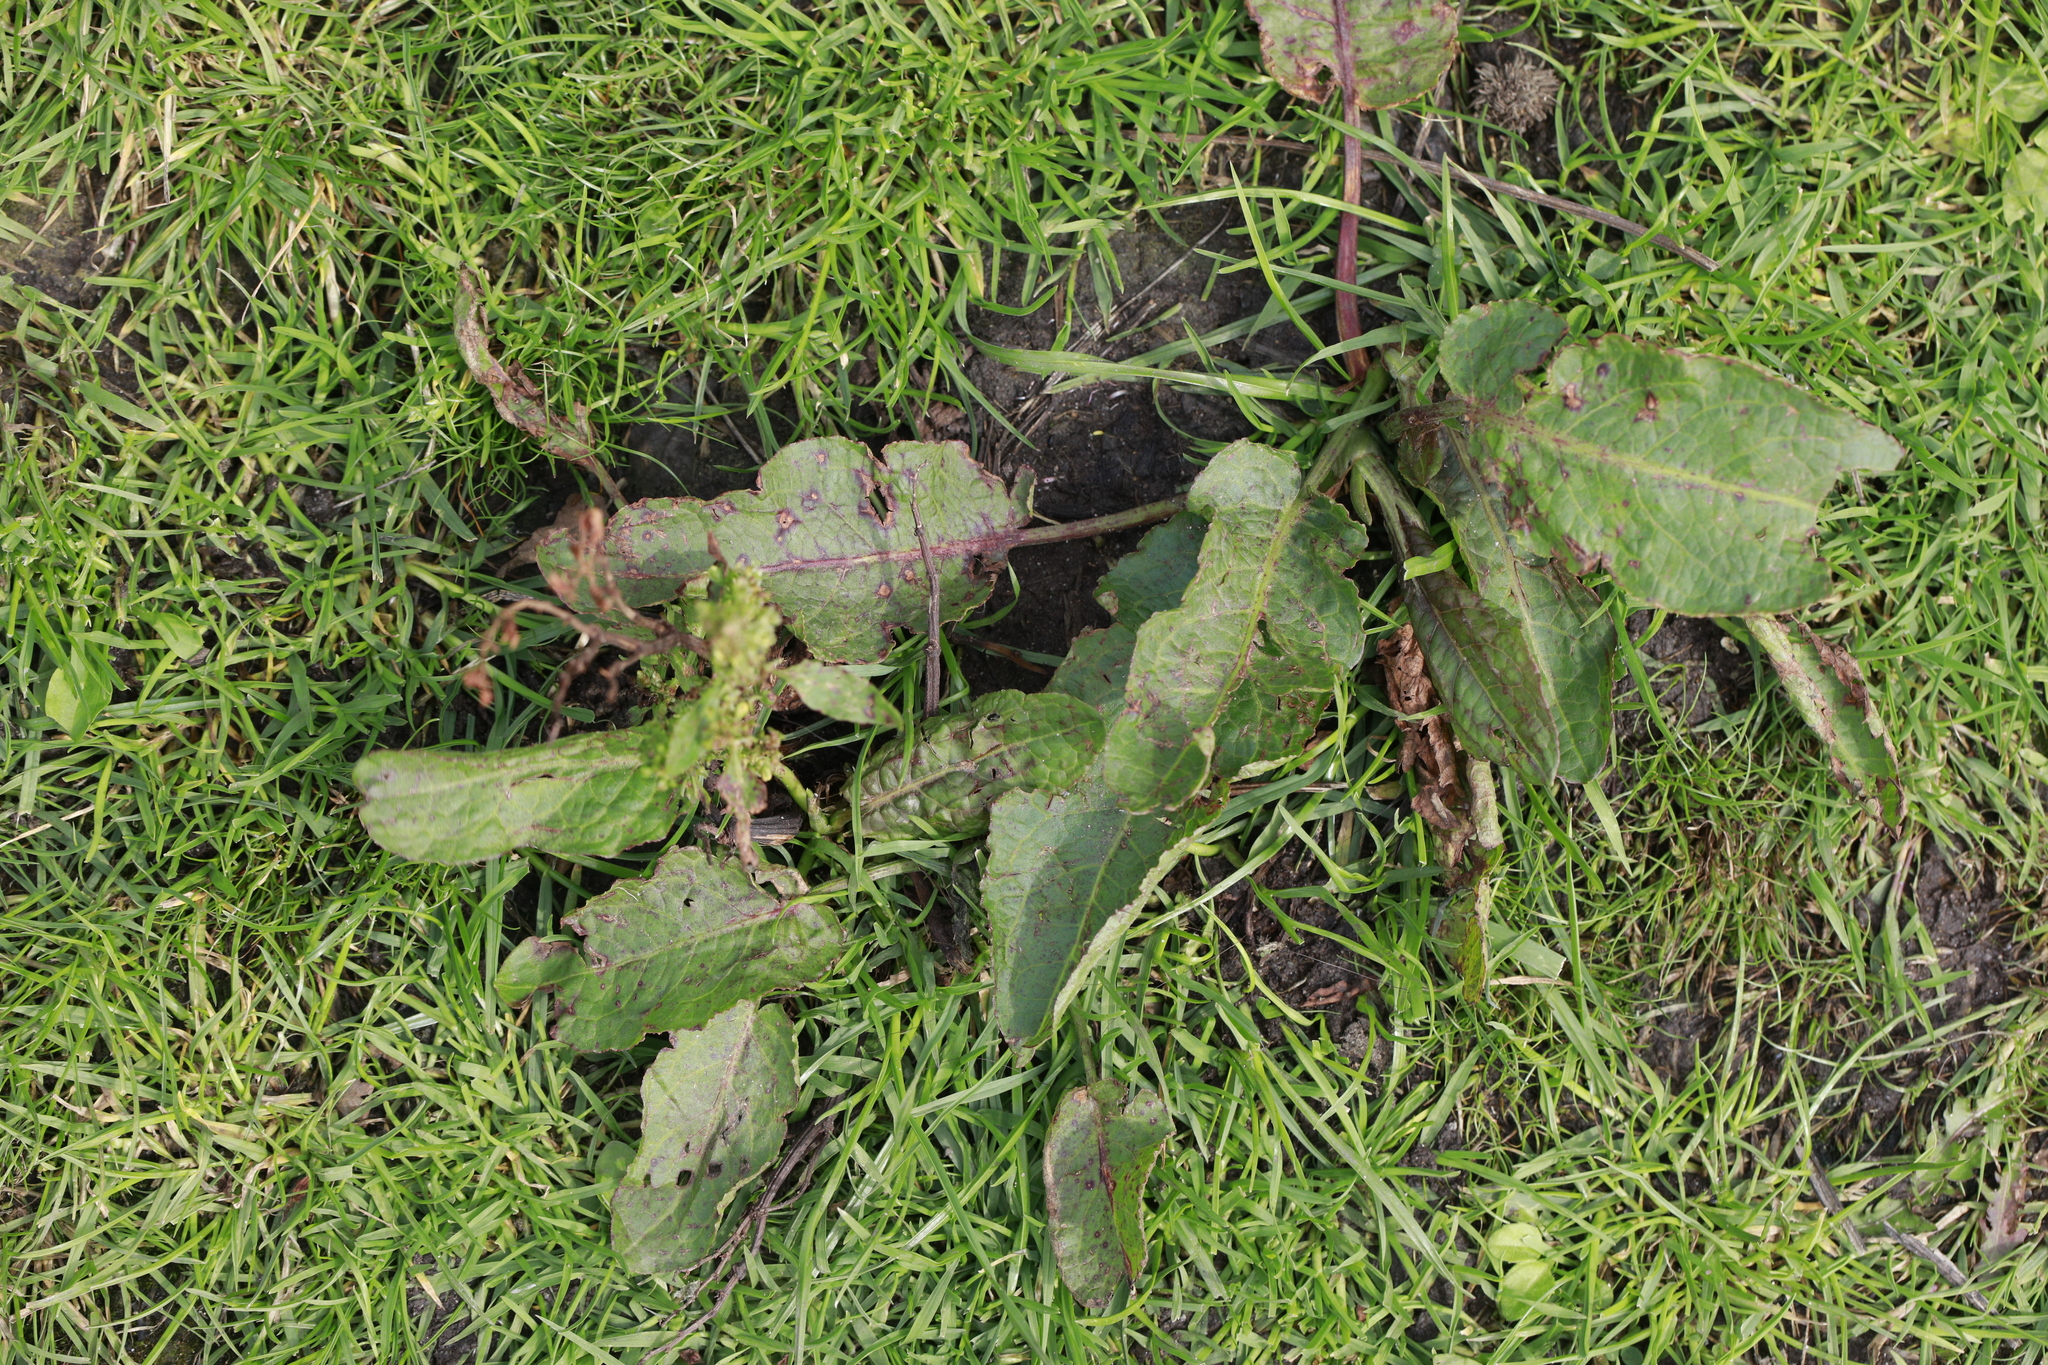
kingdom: Plantae
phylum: Tracheophyta
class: Magnoliopsida
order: Caryophyllales
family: Polygonaceae
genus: Rumex
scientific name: Rumex obtusifolius
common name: Bitter dock
